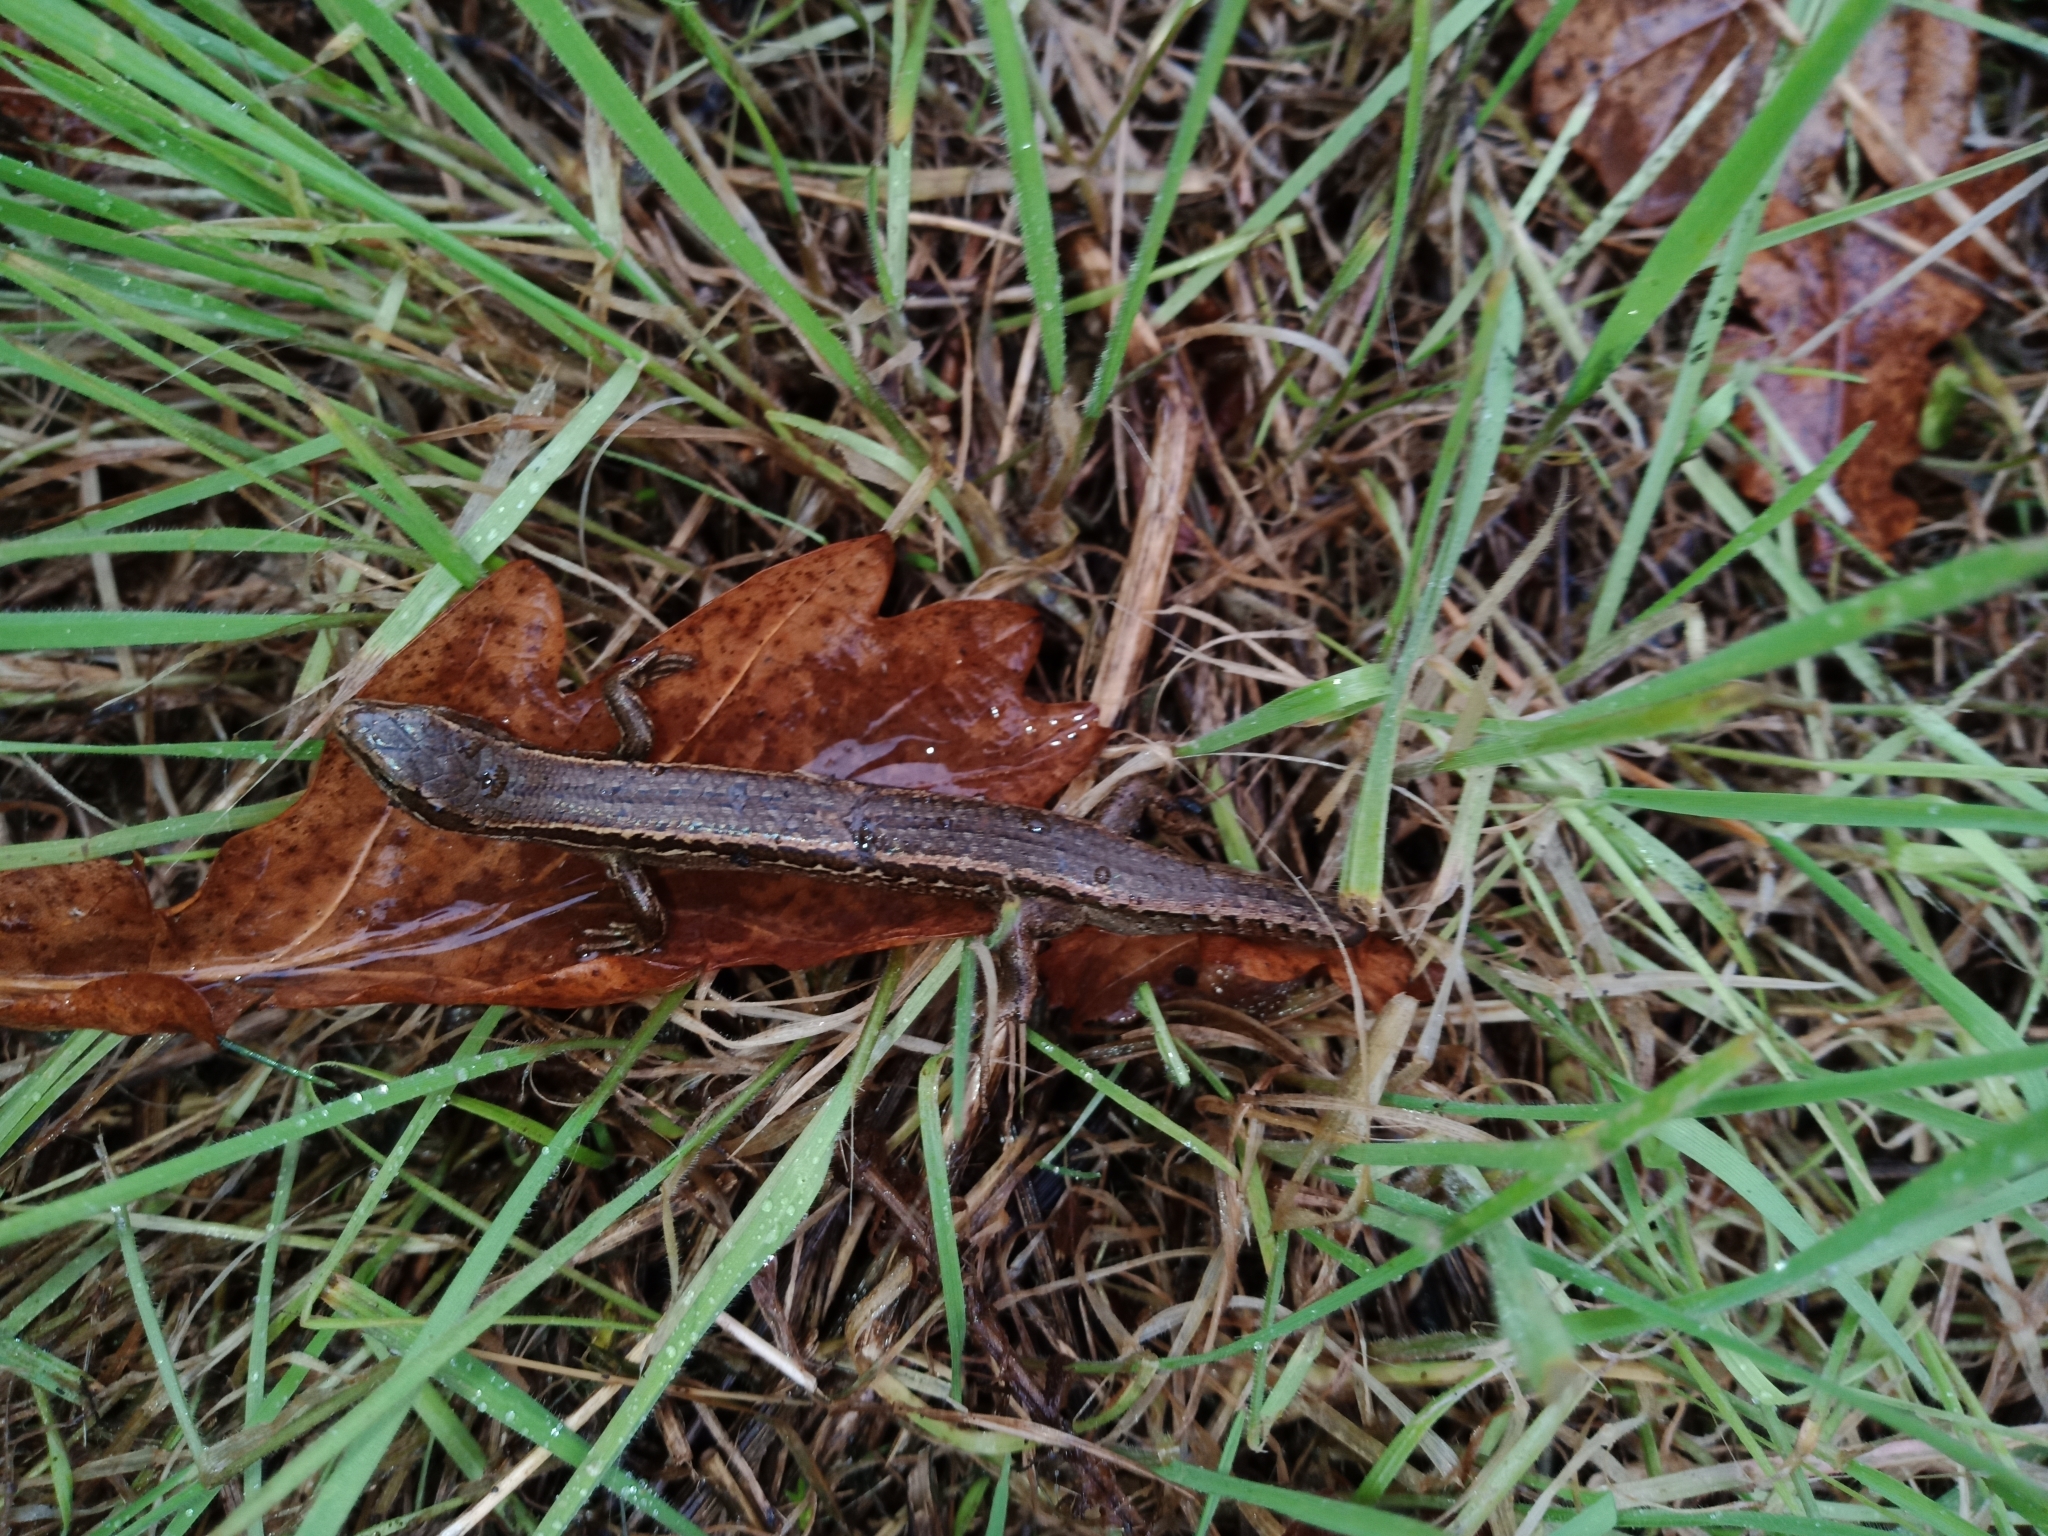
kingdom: Animalia
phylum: Chordata
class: Squamata
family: Scincidae
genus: Oligosoma
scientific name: Oligosoma polychroma
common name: Common new zealand skink
